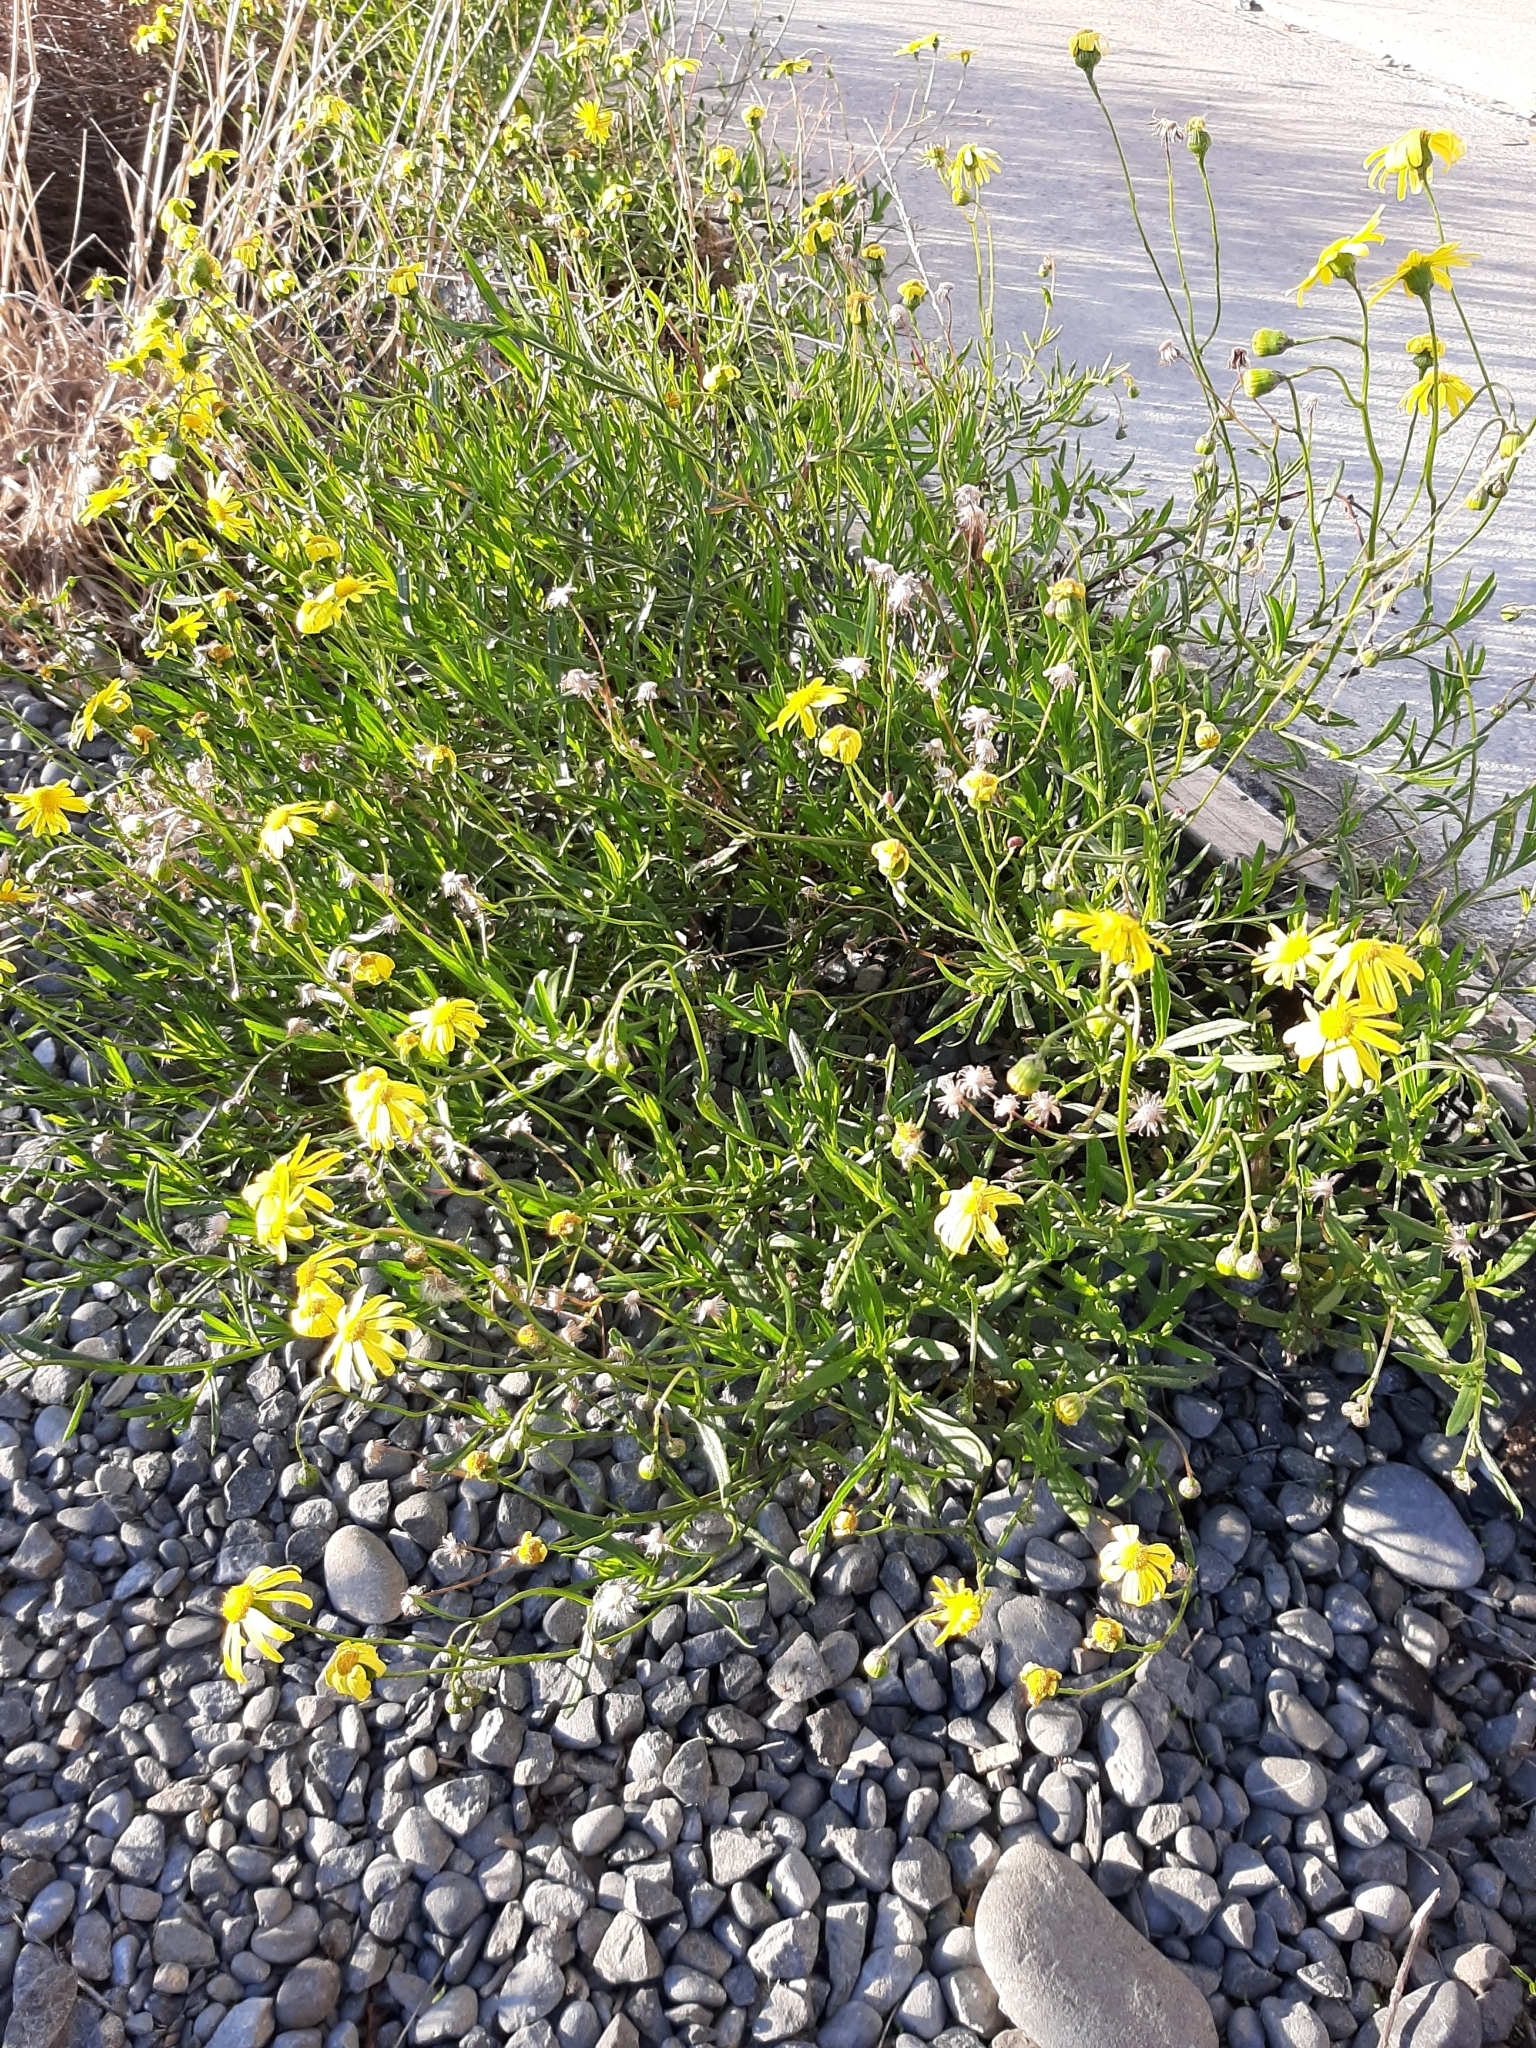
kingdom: Plantae
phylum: Tracheophyta
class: Magnoliopsida
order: Asterales
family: Asteraceae
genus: Senecio
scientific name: Senecio skirrhodon
